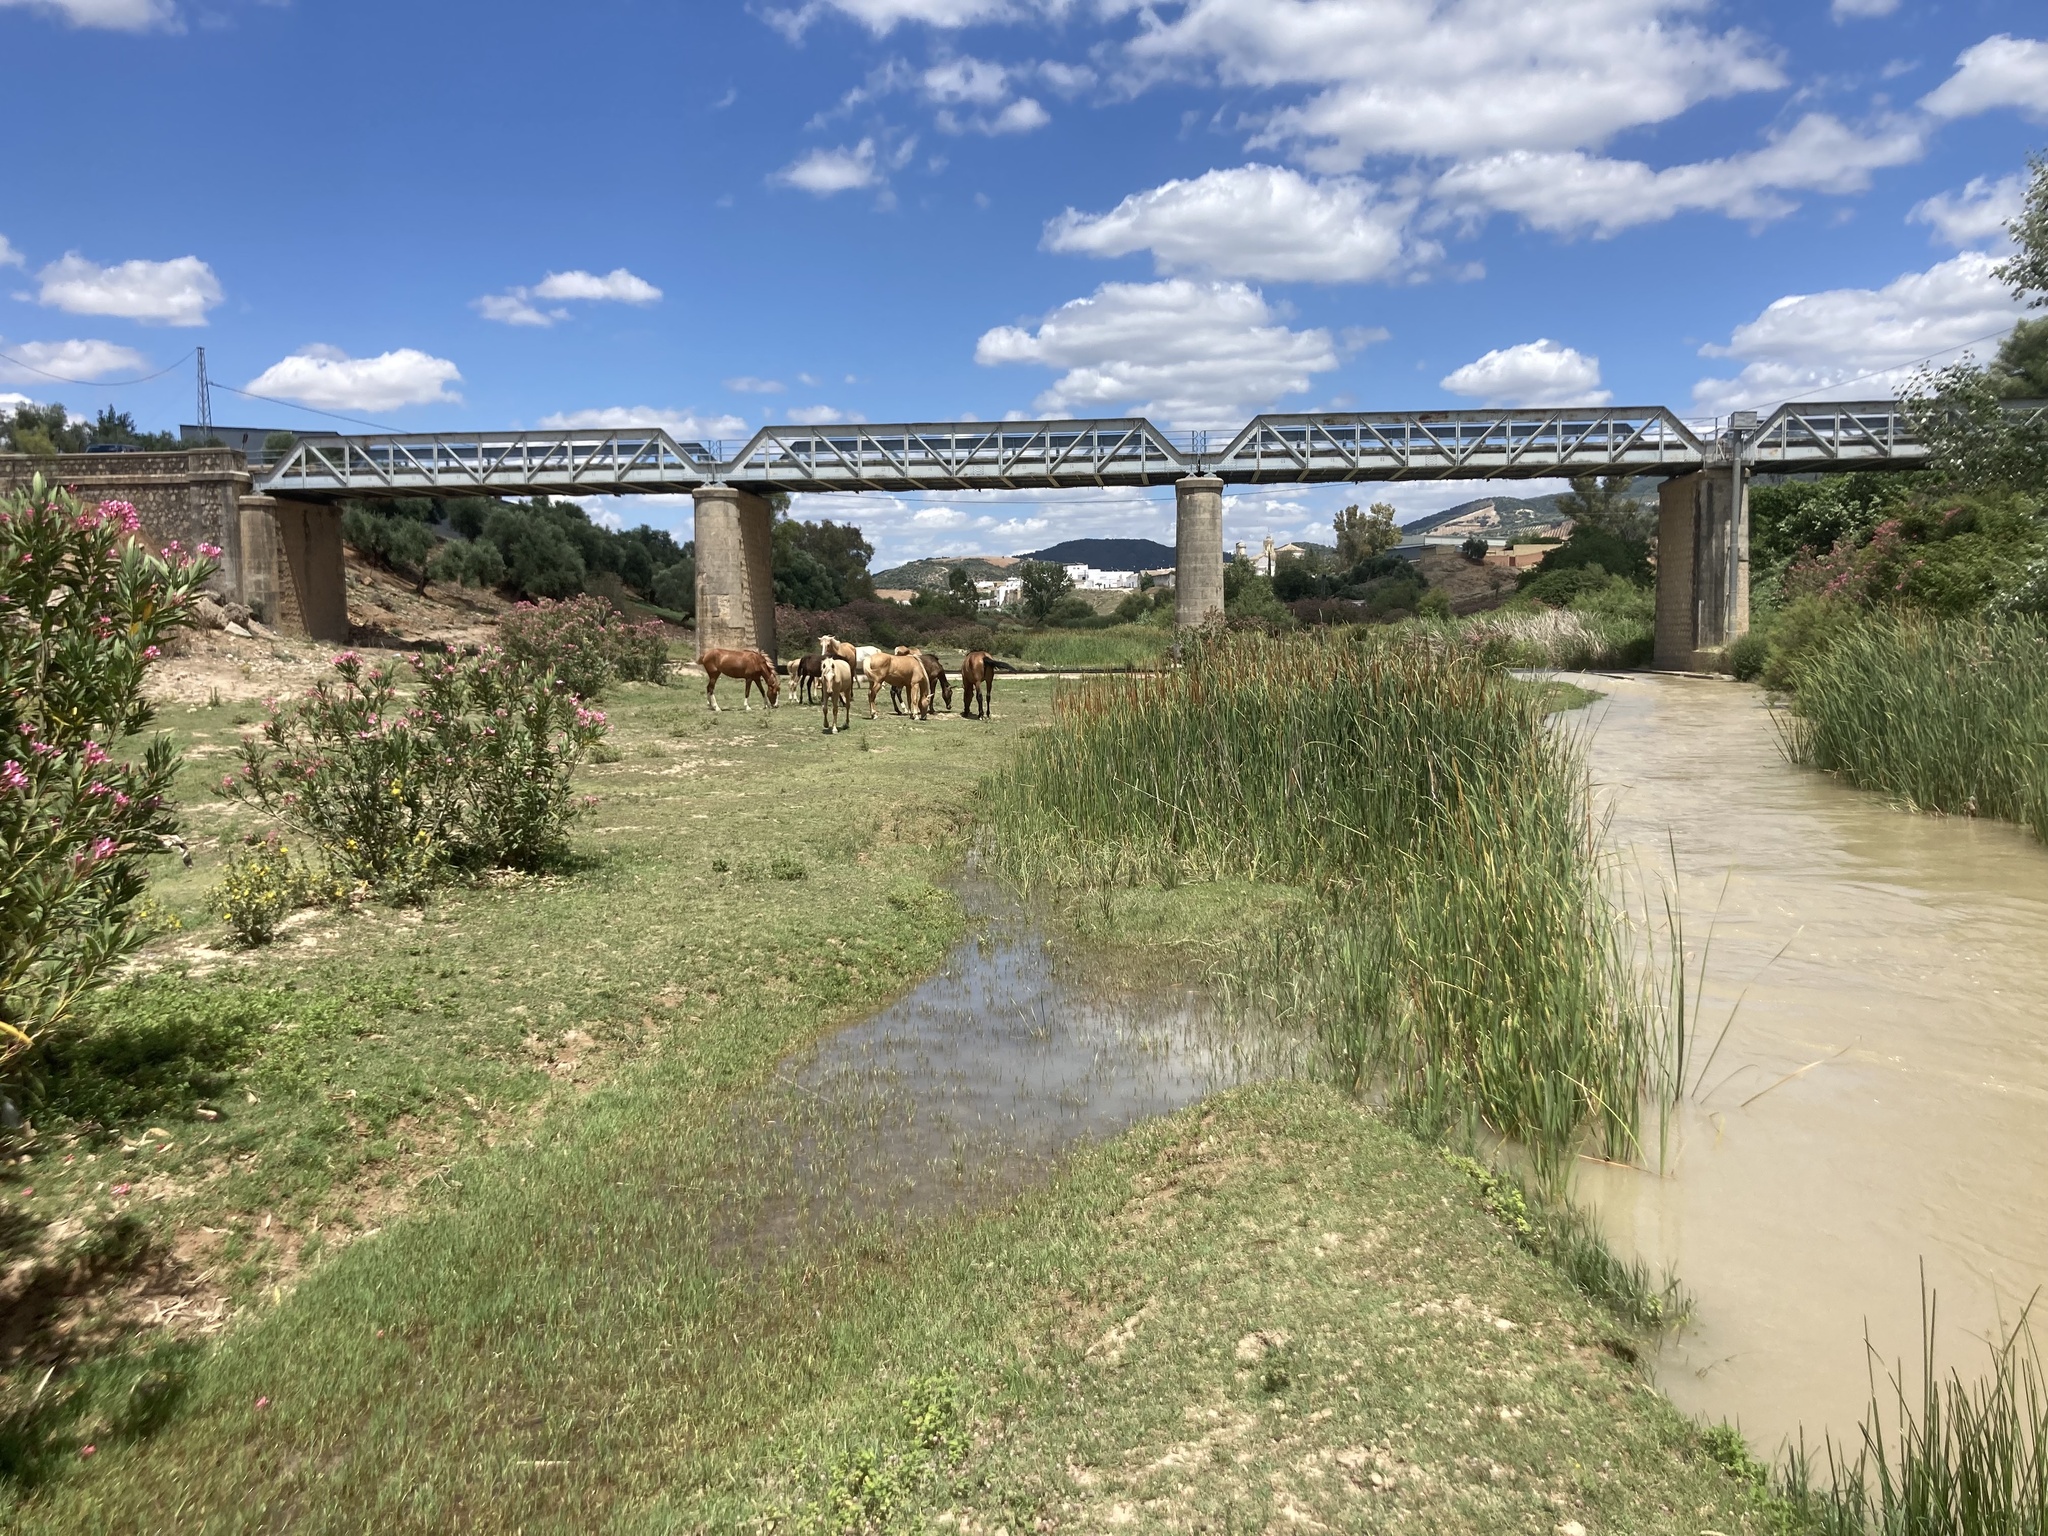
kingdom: Plantae
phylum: Tracheophyta
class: Magnoliopsida
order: Gentianales
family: Apocynaceae
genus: Nerium
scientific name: Nerium oleander
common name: Oleander
